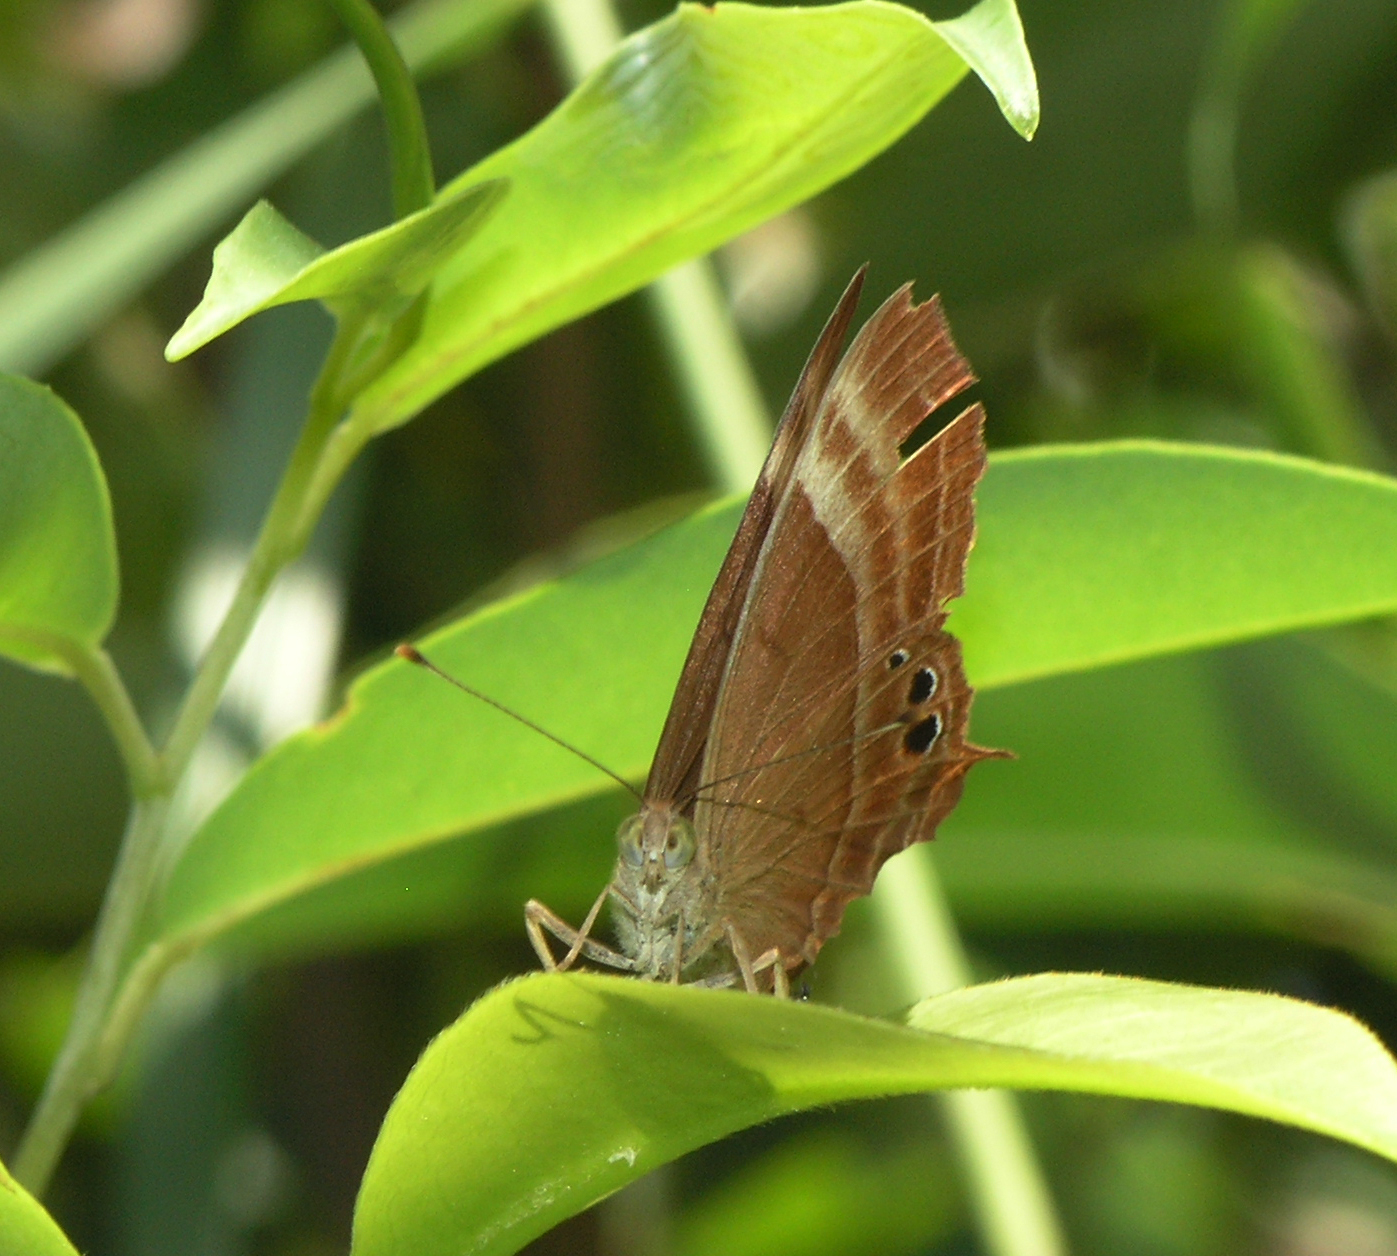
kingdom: Animalia
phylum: Arthropoda
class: Insecta
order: Lepidoptera
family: Lycaenidae
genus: Abisara
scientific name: Abisara echeria
